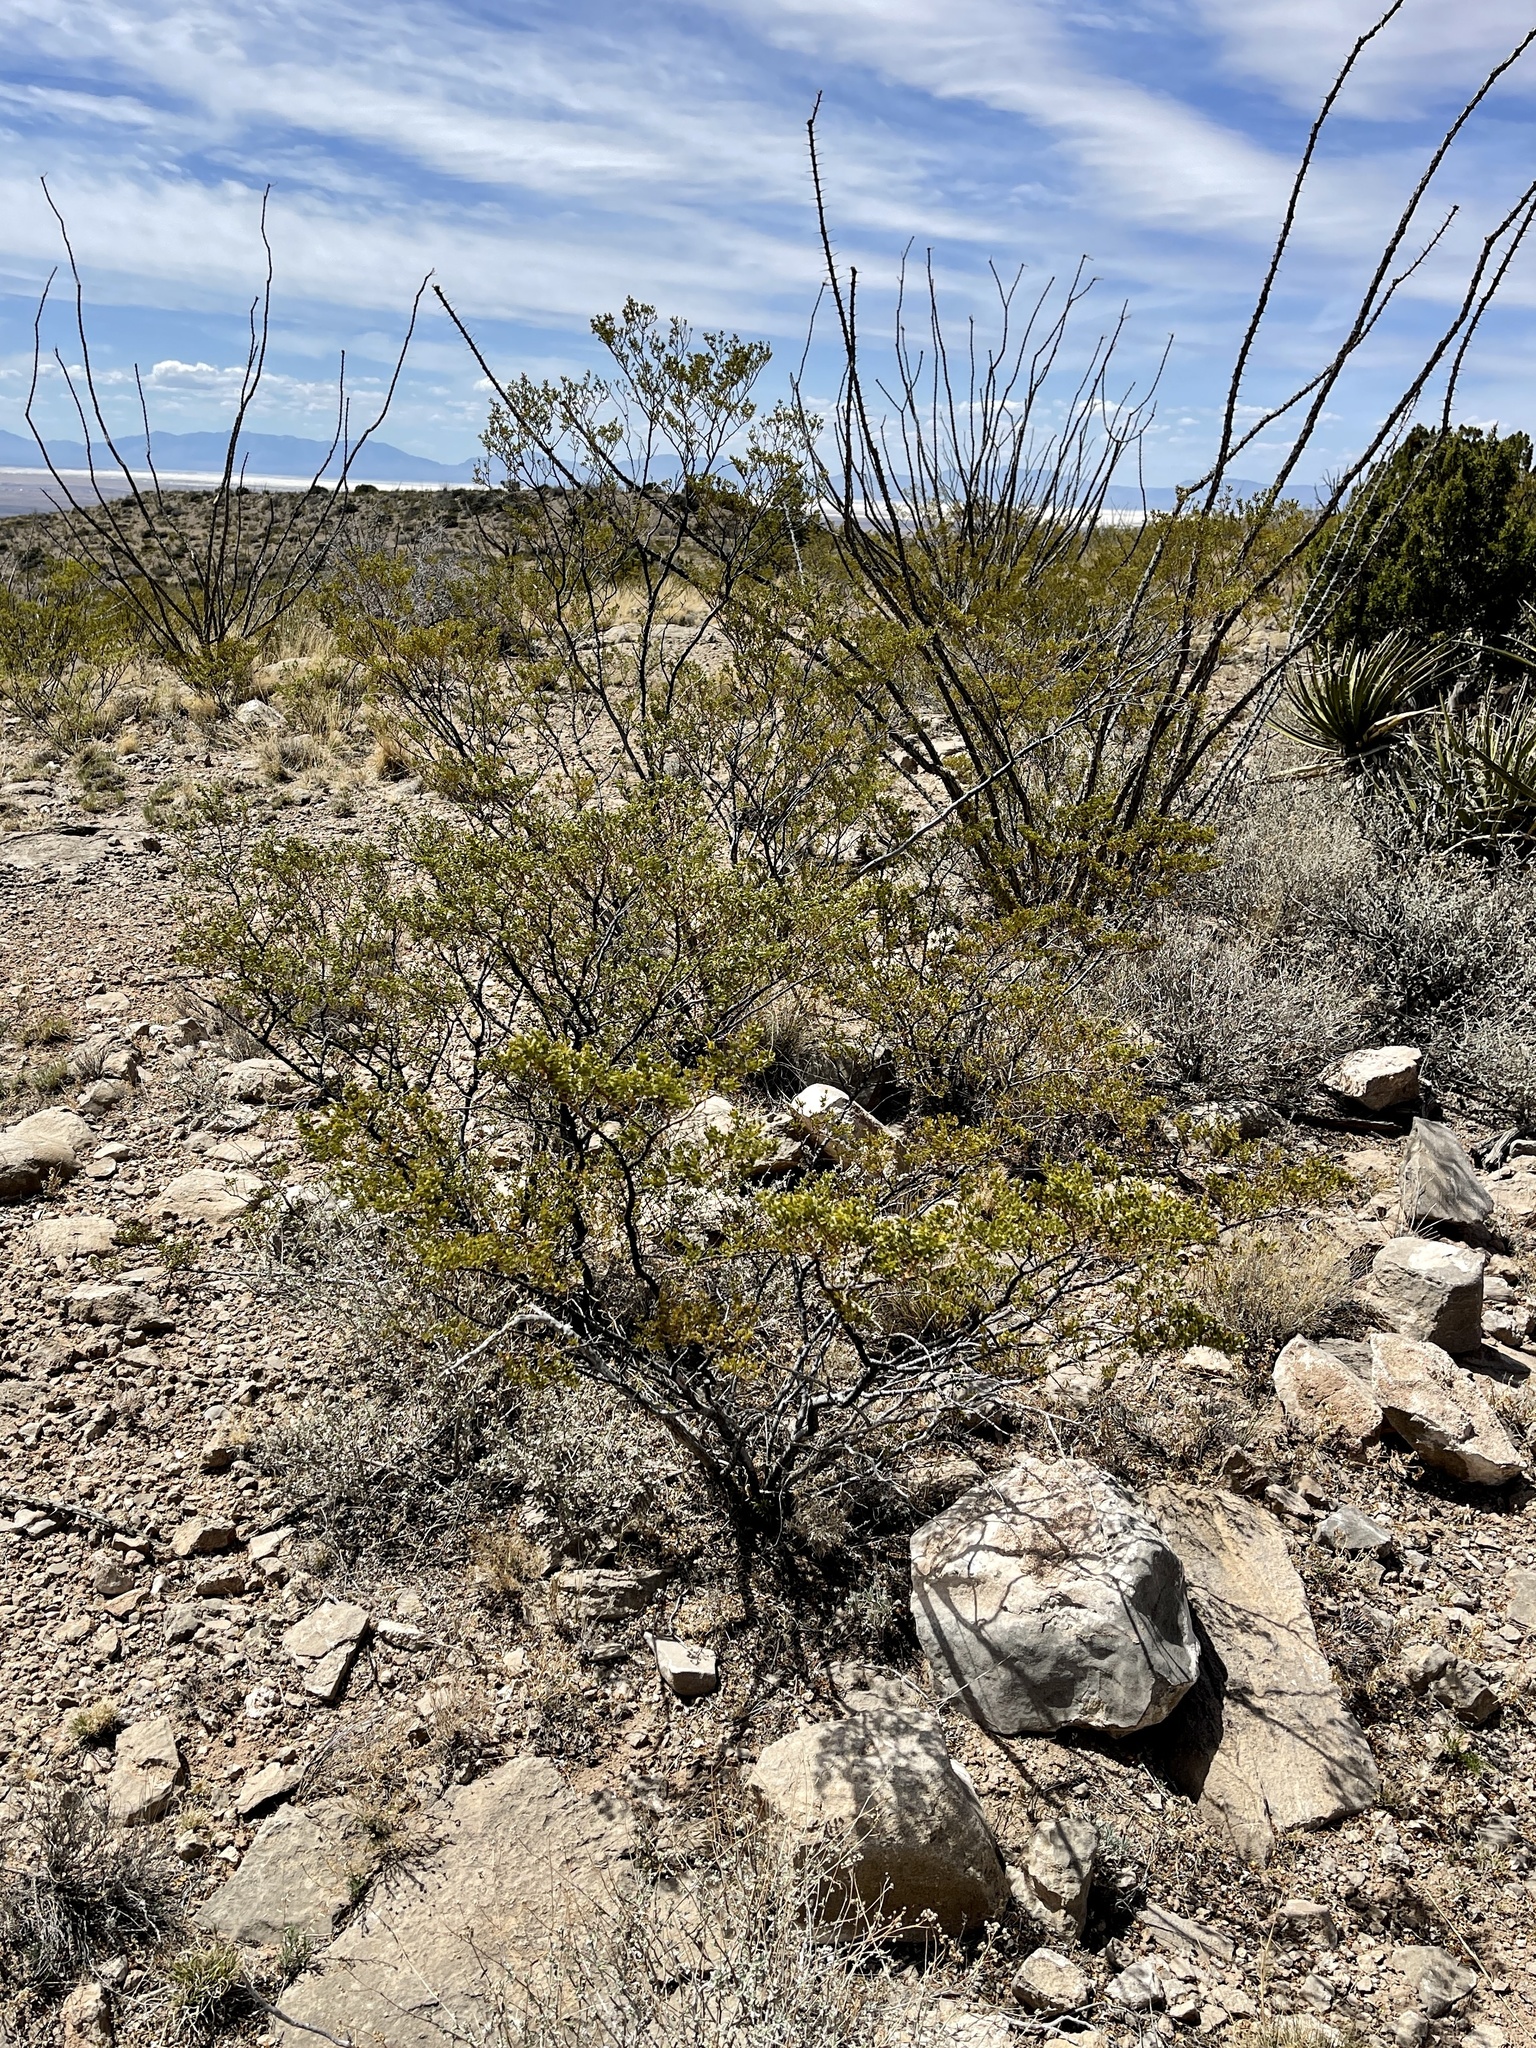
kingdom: Plantae
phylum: Tracheophyta
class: Magnoliopsida
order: Zygophyllales
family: Zygophyllaceae
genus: Larrea
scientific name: Larrea tridentata
